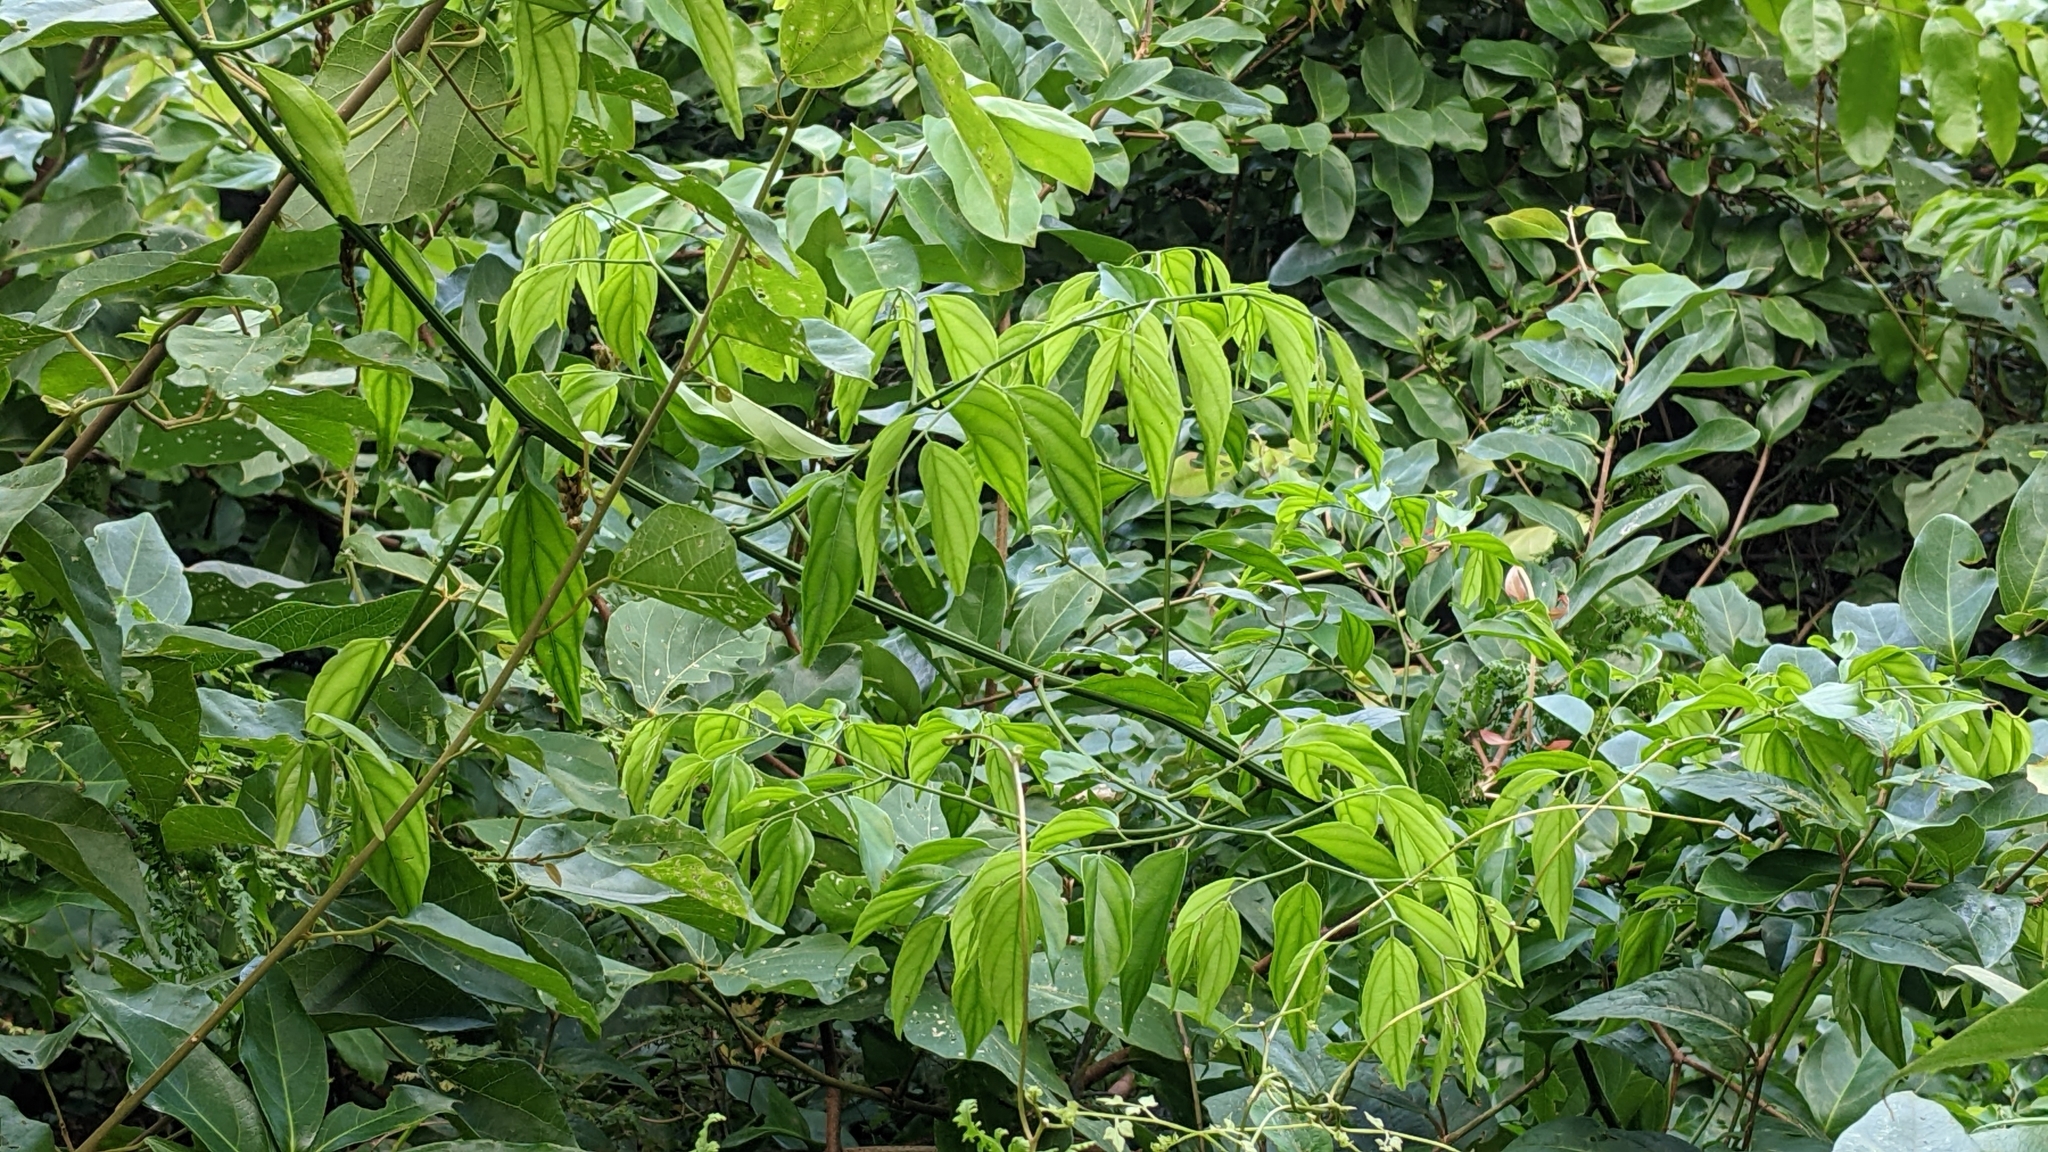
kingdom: Plantae
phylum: Tracheophyta
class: Magnoliopsida
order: Rosales
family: Rhamnaceae
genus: Ventilago
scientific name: Ventilago leiocarpa
